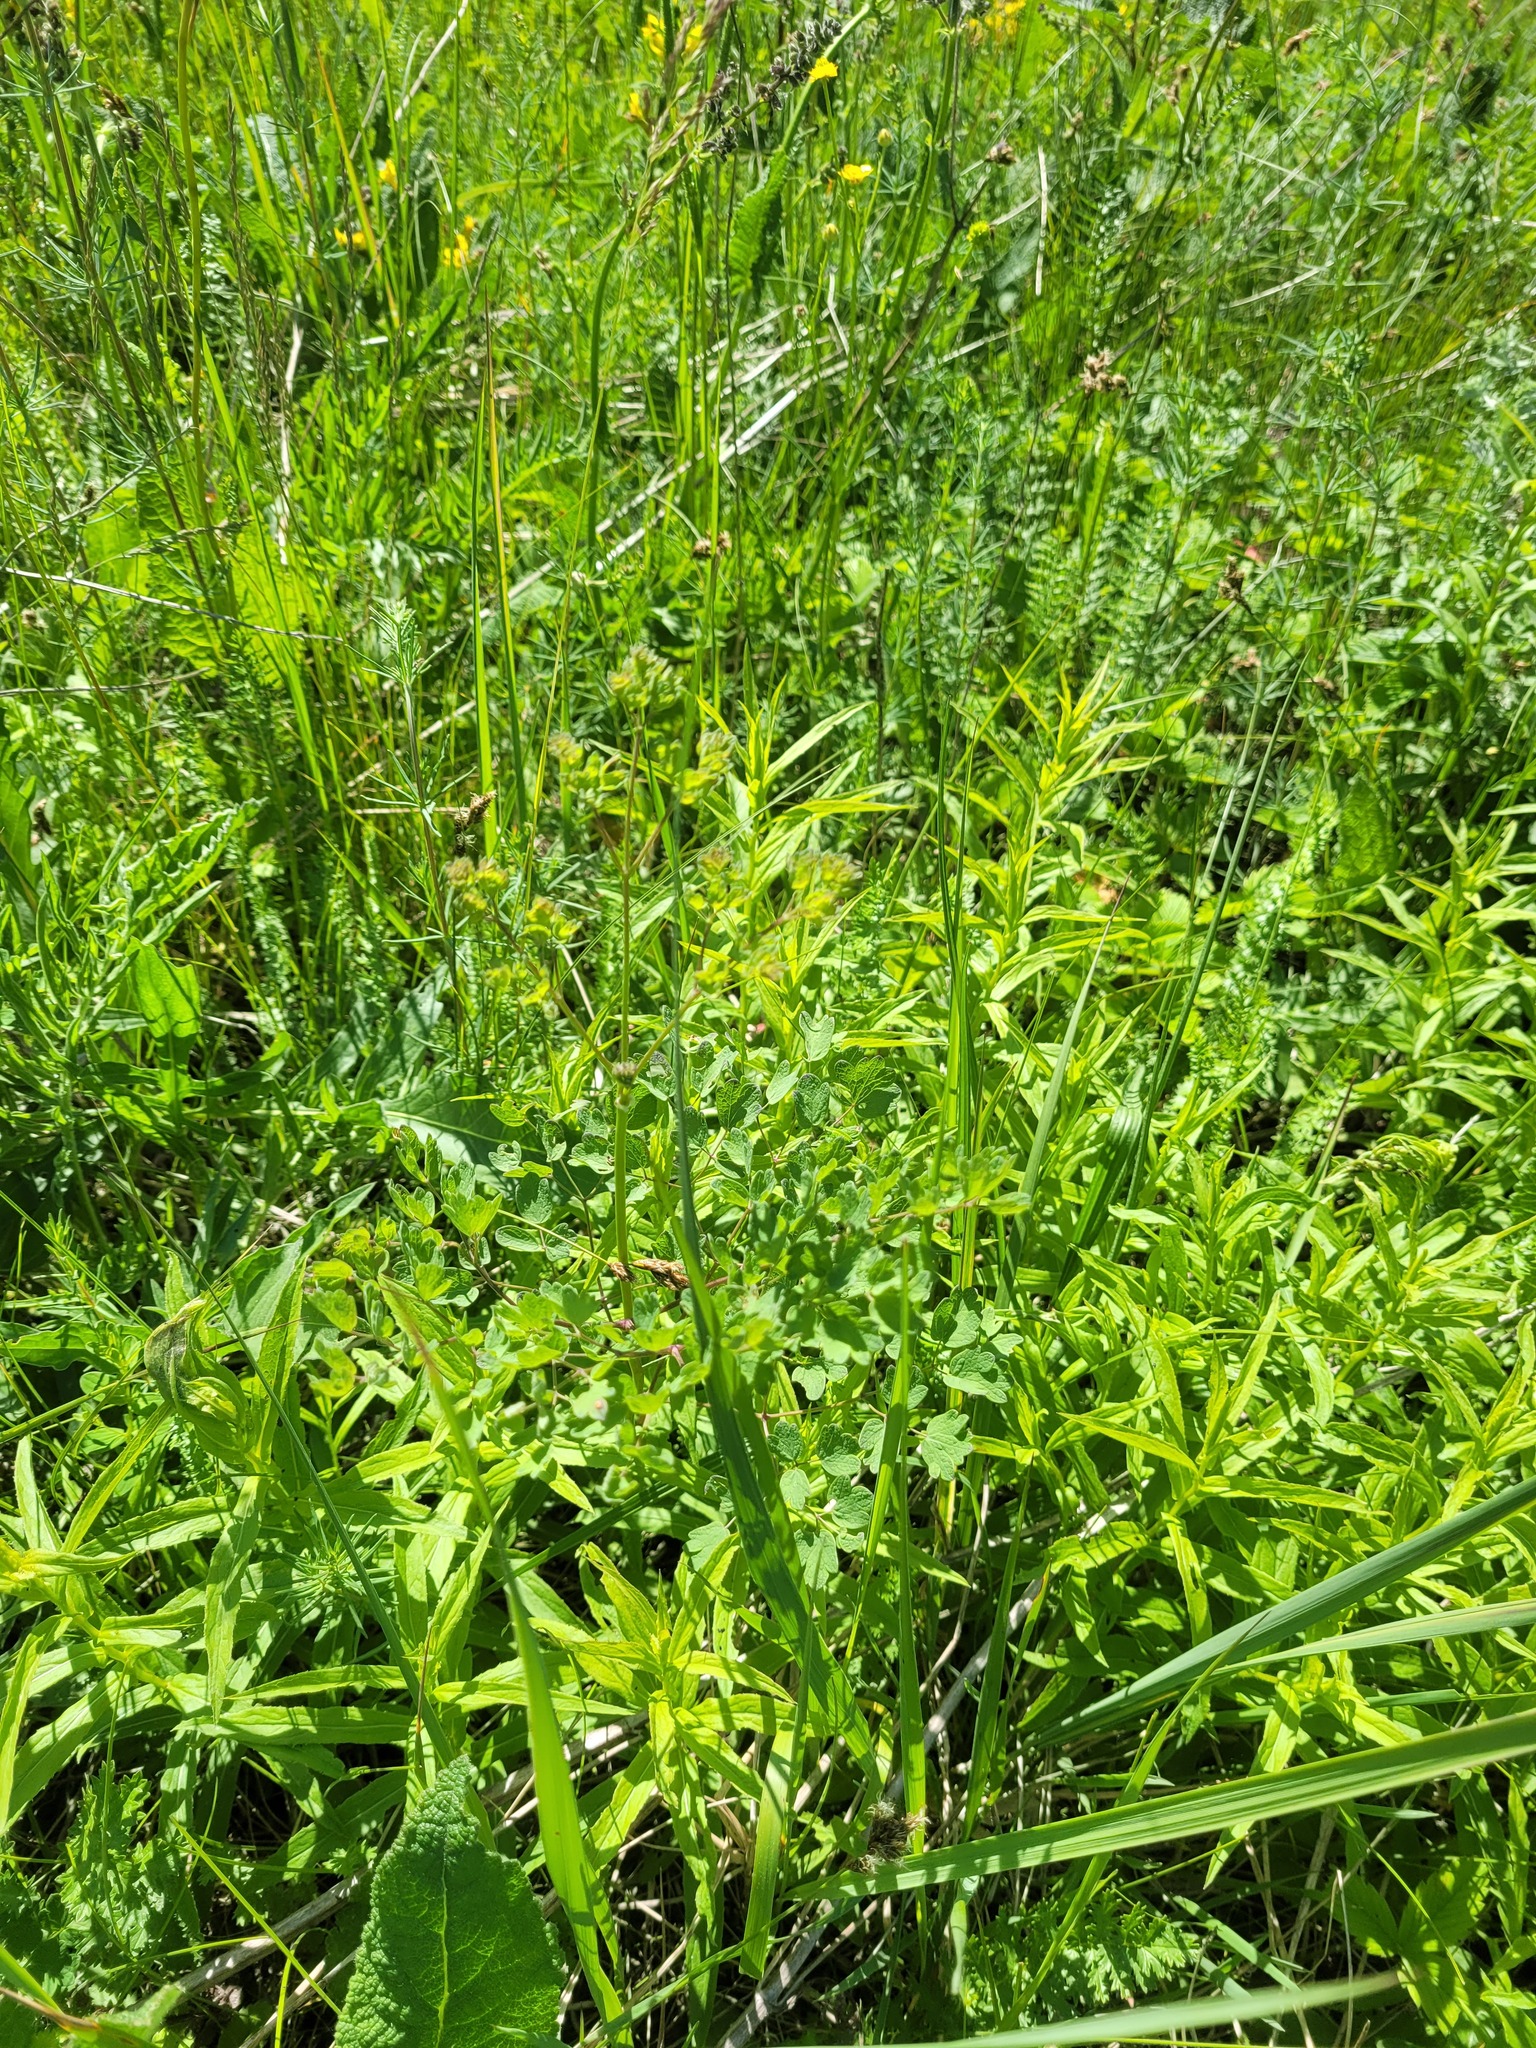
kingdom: Plantae
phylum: Tracheophyta
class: Magnoliopsida
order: Ranunculales
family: Ranunculaceae
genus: Thalictrum
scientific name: Thalictrum minus
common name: Lesser meadow-rue
